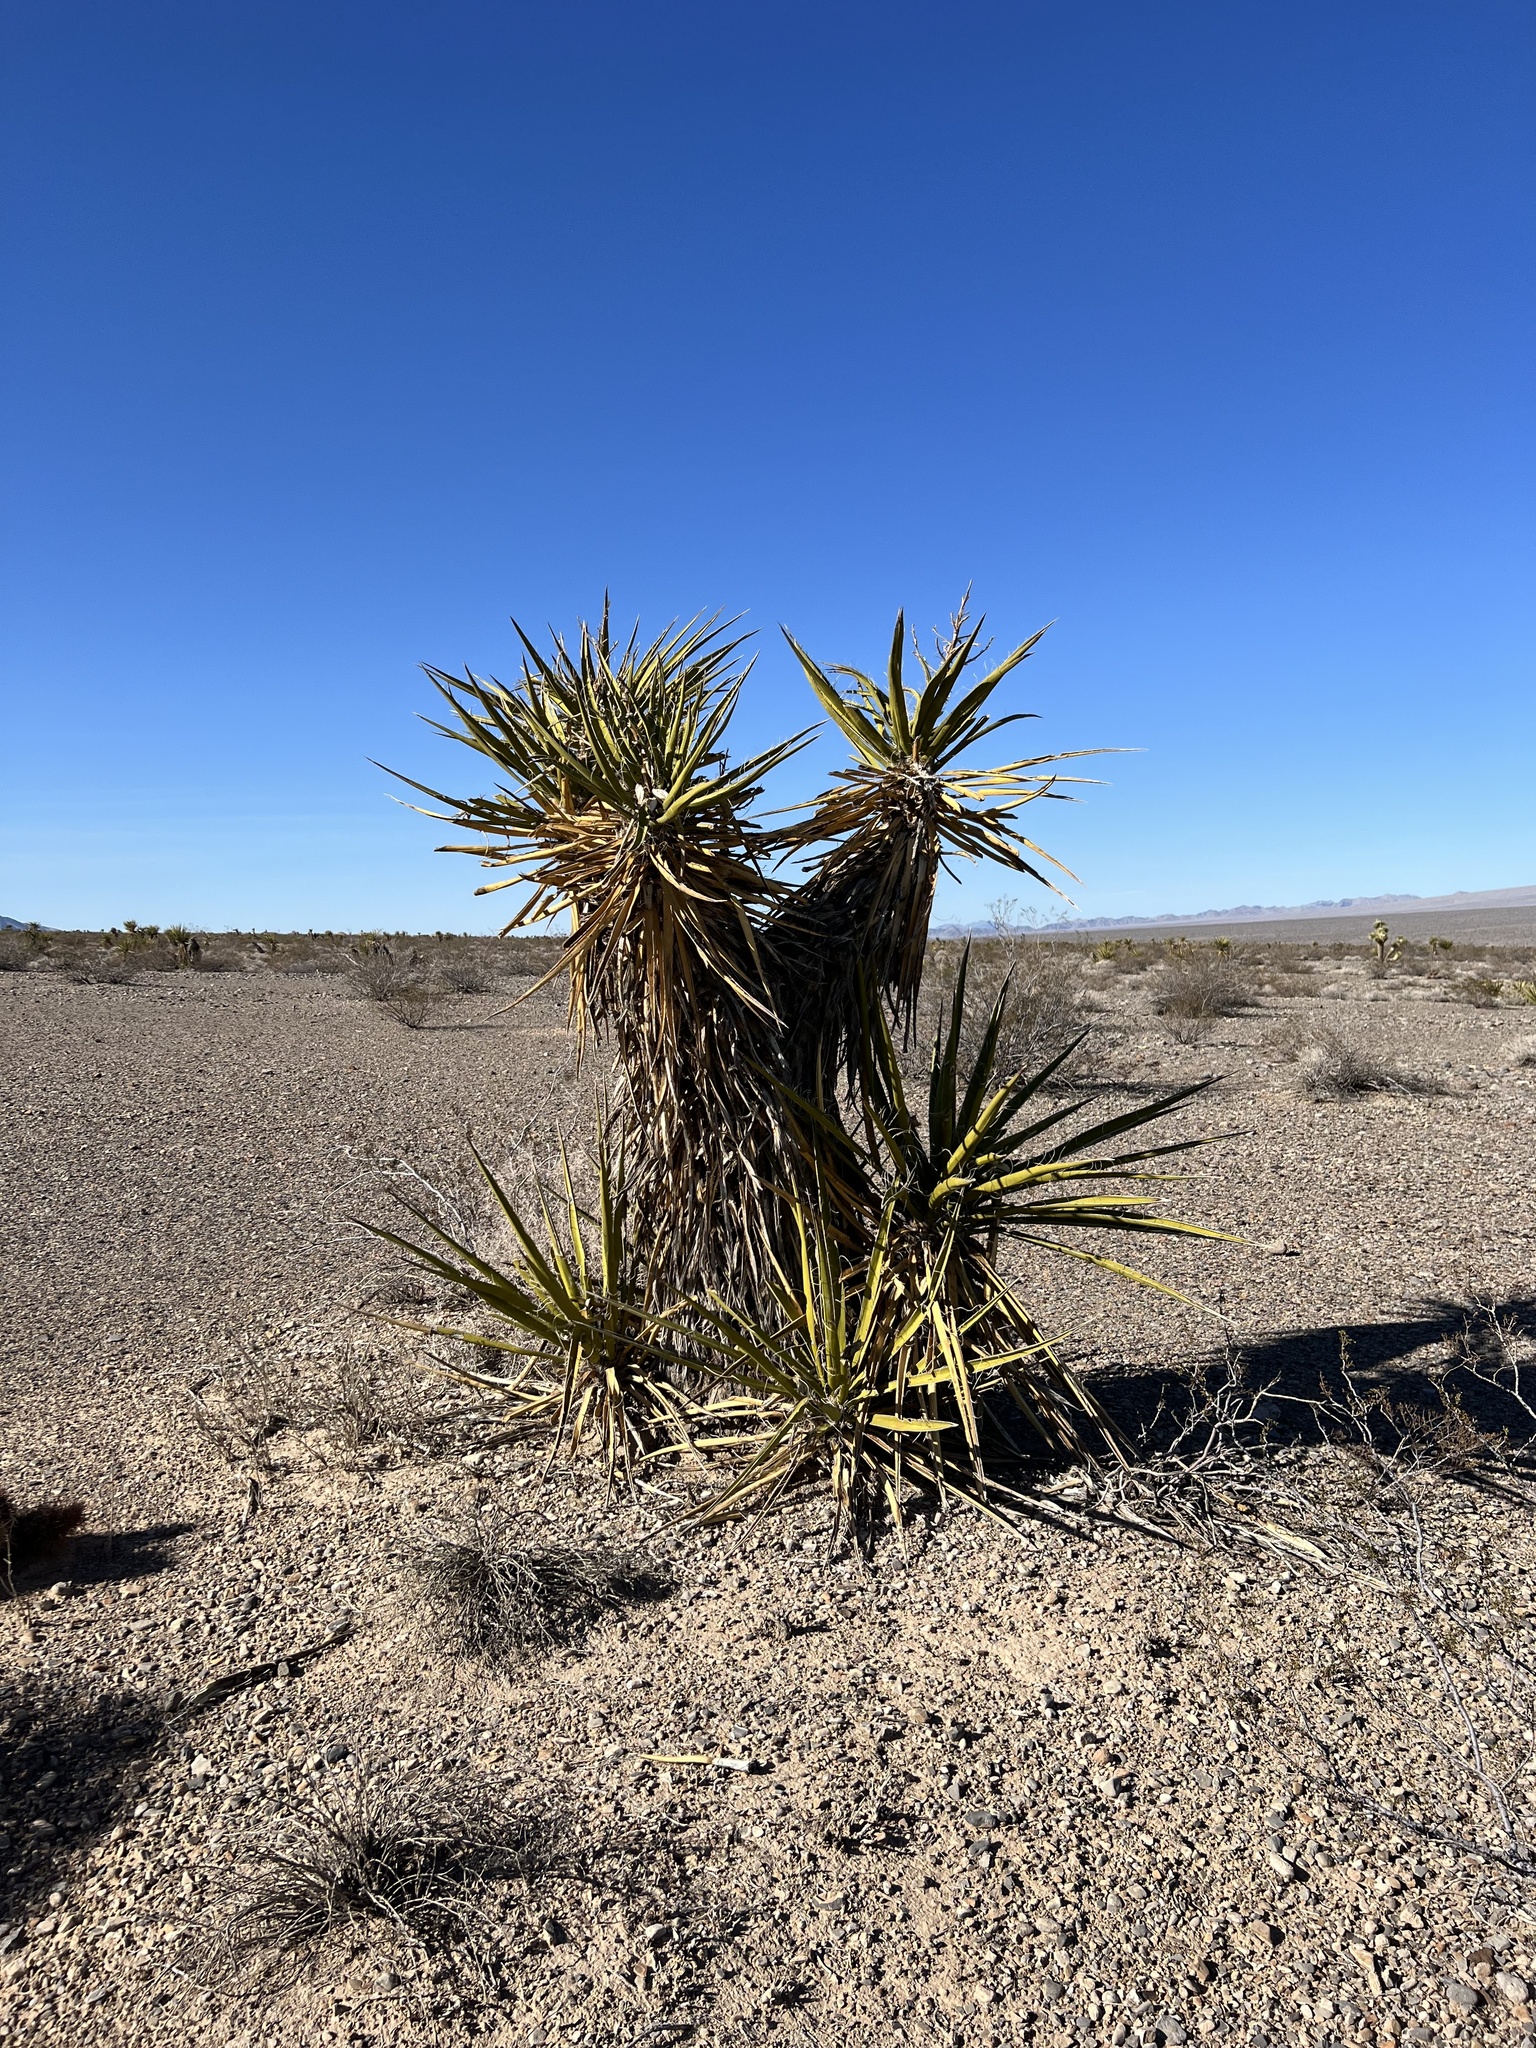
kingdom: Plantae
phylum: Tracheophyta
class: Liliopsida
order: Asparagales
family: Asparagaceae
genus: Yucca
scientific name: Yucca schidigera
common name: Mojave yucca
